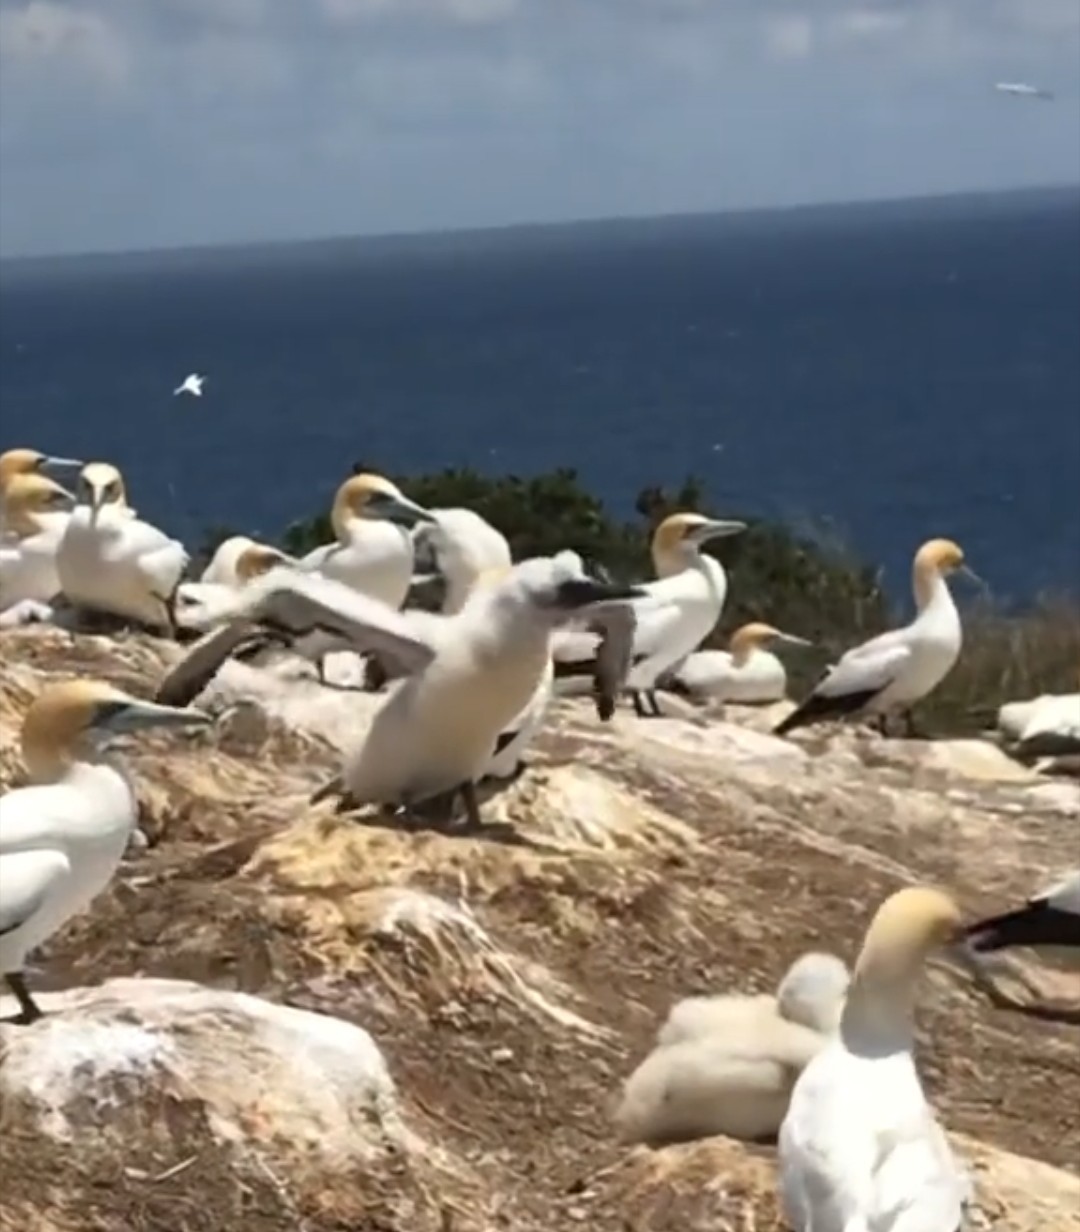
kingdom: Animalia
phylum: Chordata
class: Aves
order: Suliformes
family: Sulidae
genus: Morus
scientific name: Morus serrator
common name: Australasian gannet
